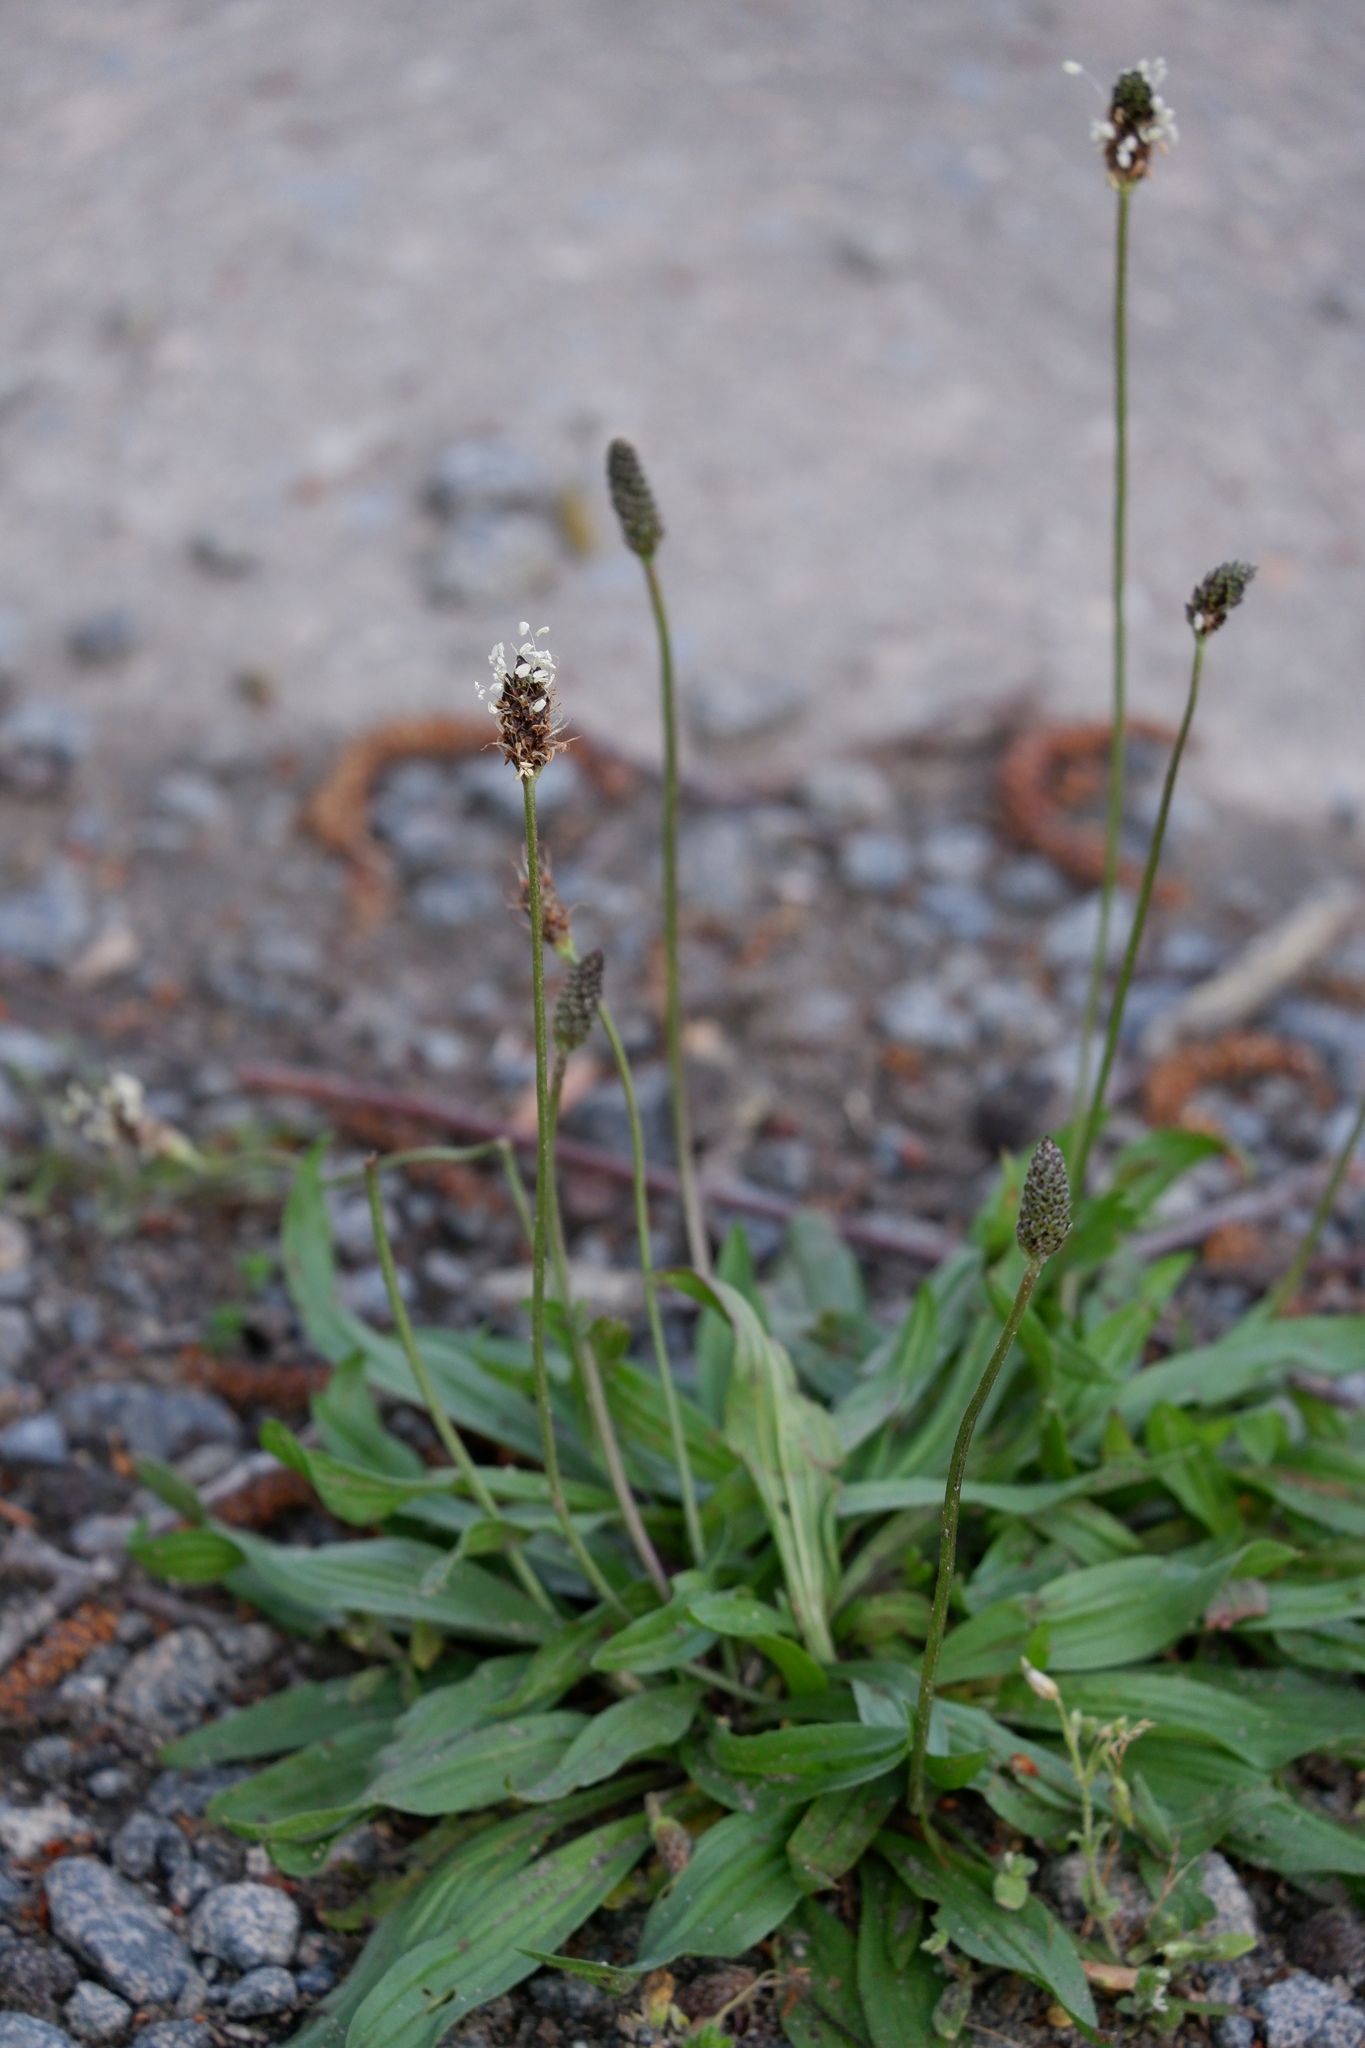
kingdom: Plantae
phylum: Tracheophyta
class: Magnoliopsida
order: Lamiales
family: Plantaginaceae
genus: Plantago
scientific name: Plantago lanceolata
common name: Ribwort plantain
